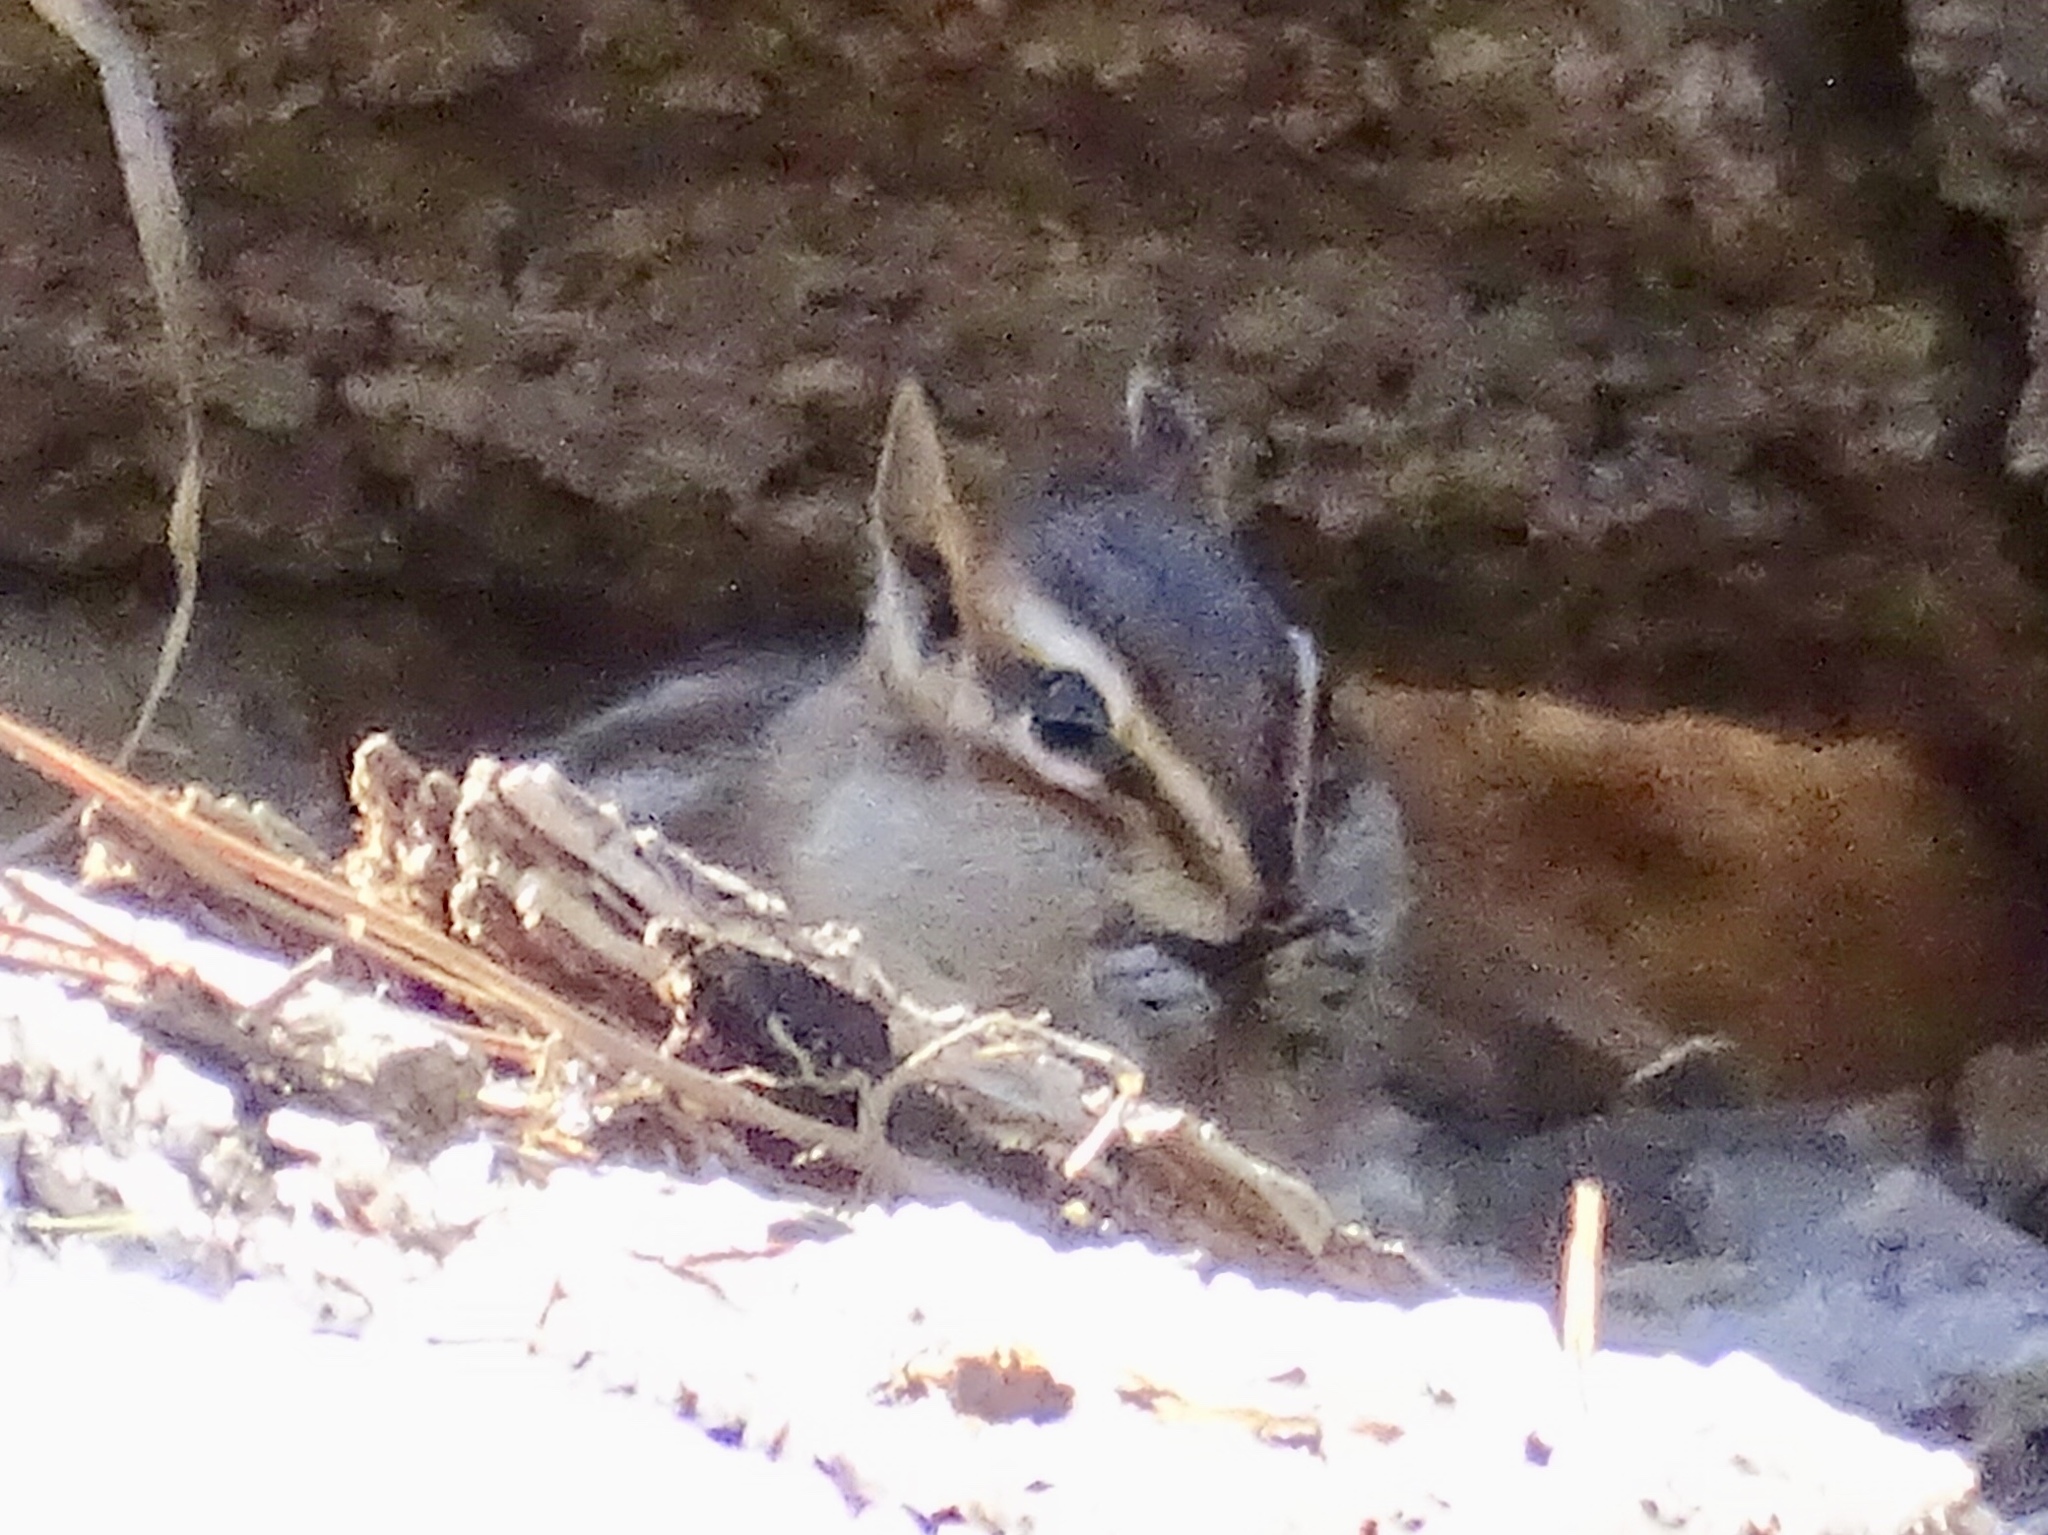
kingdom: Animalia
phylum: Chordata
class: Mammalia
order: Rodentia
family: Sciuridae
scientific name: Sciuridae
